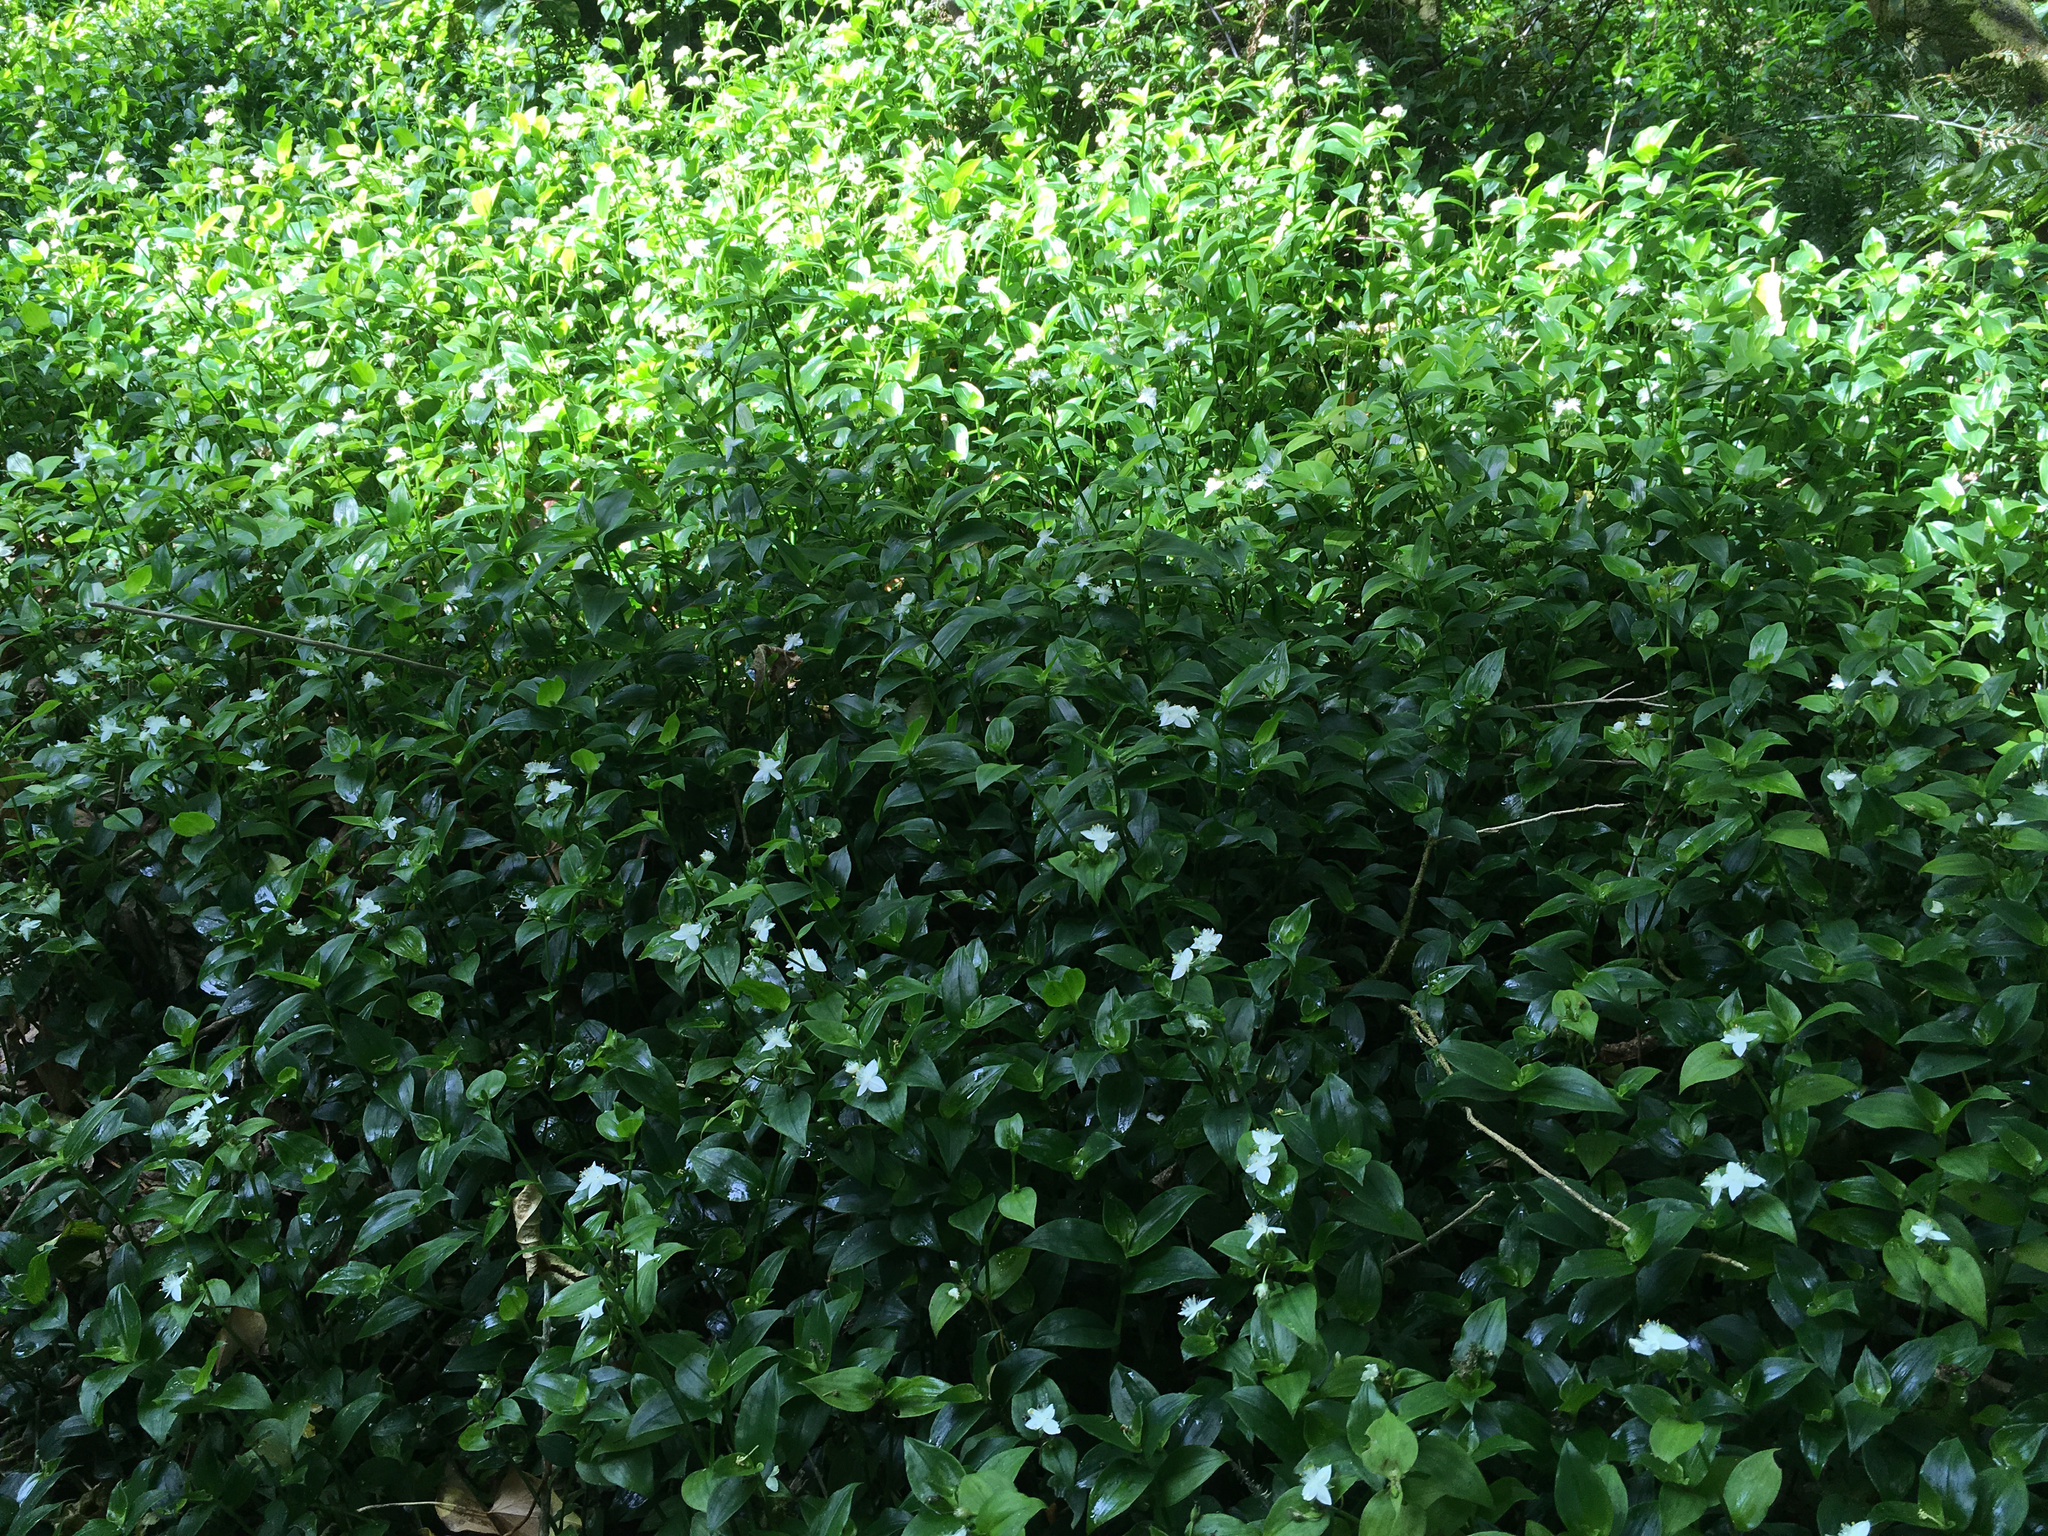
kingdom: Plantae
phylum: Tracheophyta
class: Liliopsida
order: Commelinales
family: Commelinaceae
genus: Tradescantia
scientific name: Tradescantia fluminensis
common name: Wandering-jew
